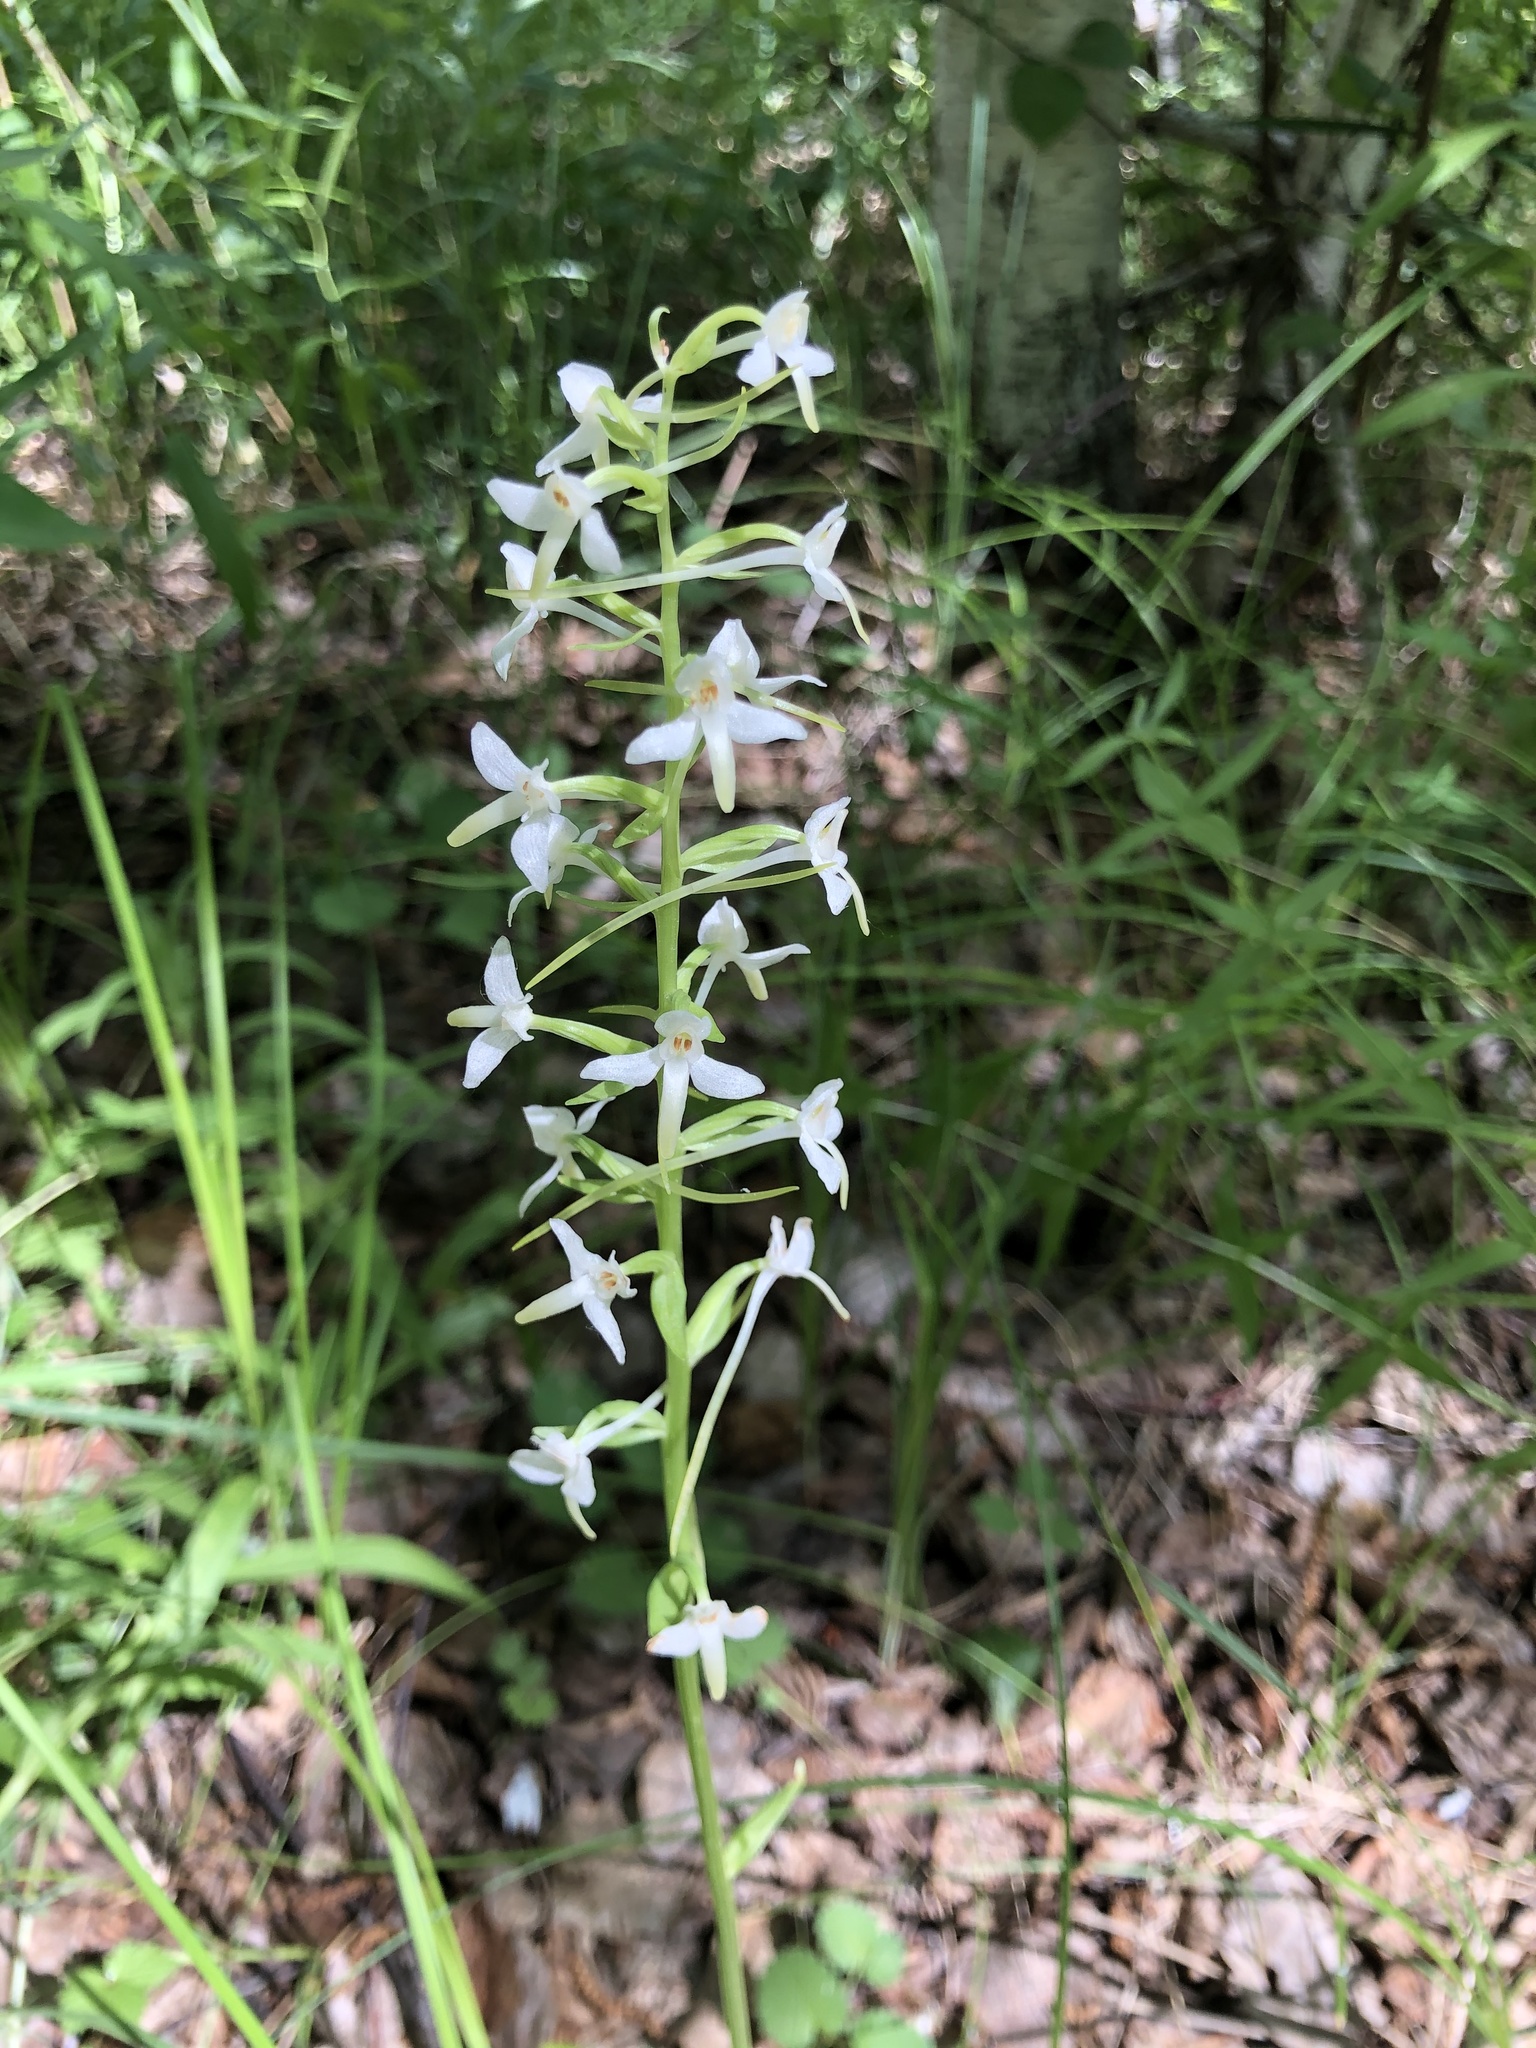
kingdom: Plantae
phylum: Tracheophyta
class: Liliopsida
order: Asparagales
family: Orchidaceae
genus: Platanthera
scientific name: Platanthera bifolia
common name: Lesser butterfly-orchid
